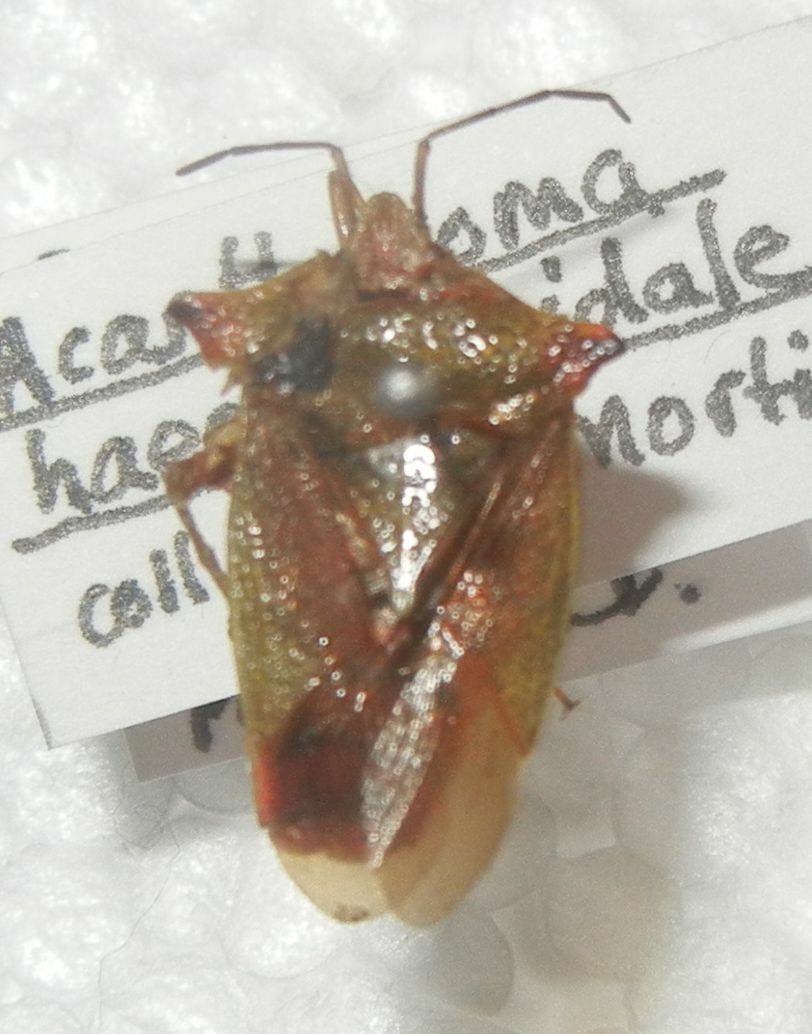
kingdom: Animalia
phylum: Arthropoda
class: Insecta
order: Hemiptera
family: Acanthosomatidae
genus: Acanthosoma
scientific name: Acanthosoma haemorrhoidale
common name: Hawthorn shieldbug
